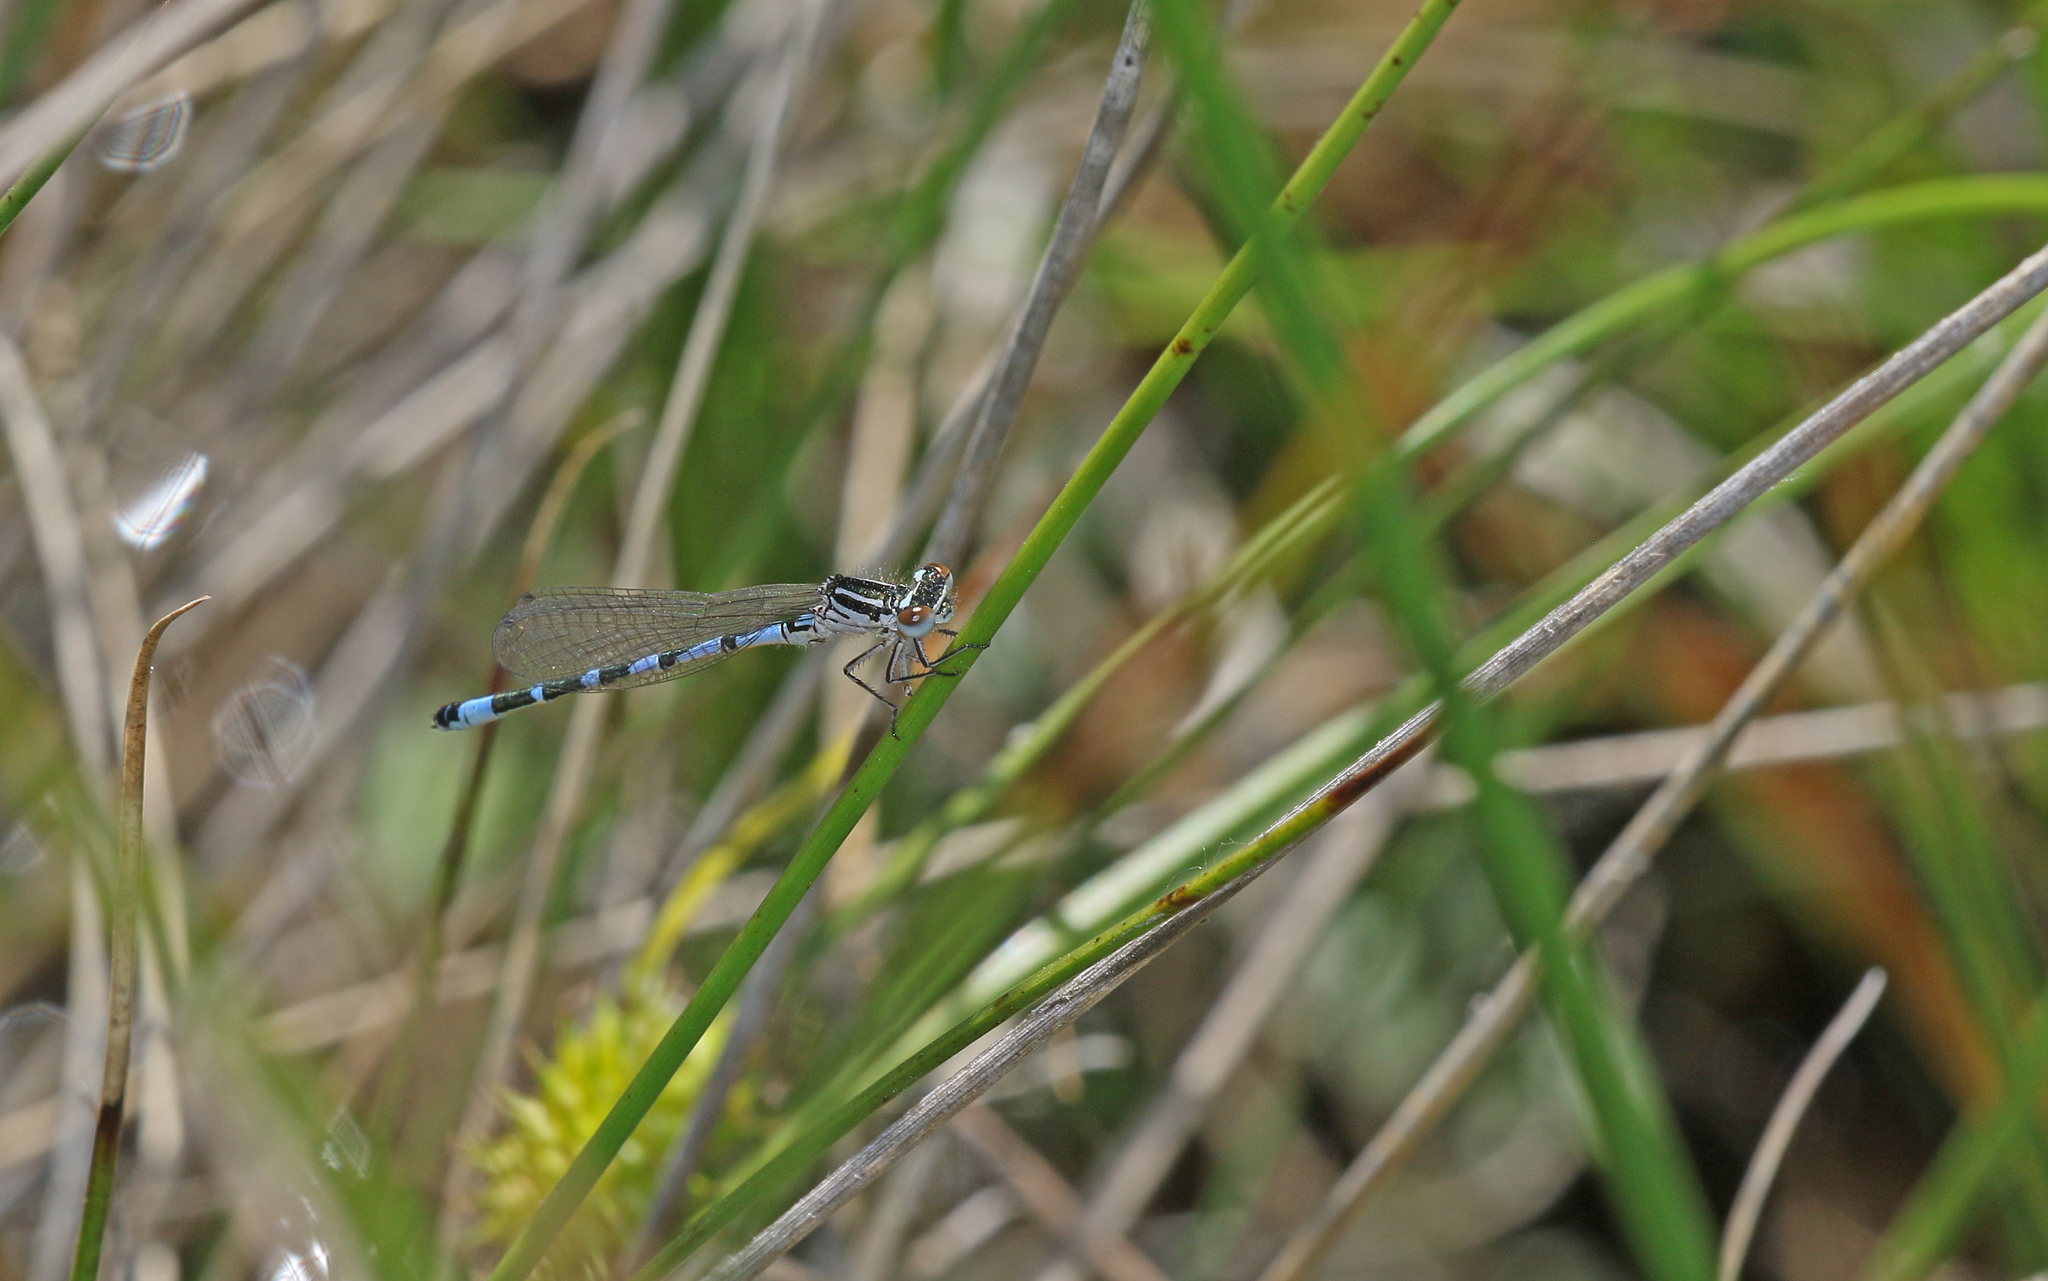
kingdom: Animalia
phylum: Arthropoda
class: Insecta
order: Odonata
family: Coenagrionidae
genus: Coenagrion
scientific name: Coenagrion ornatum
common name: Ornate bluet
